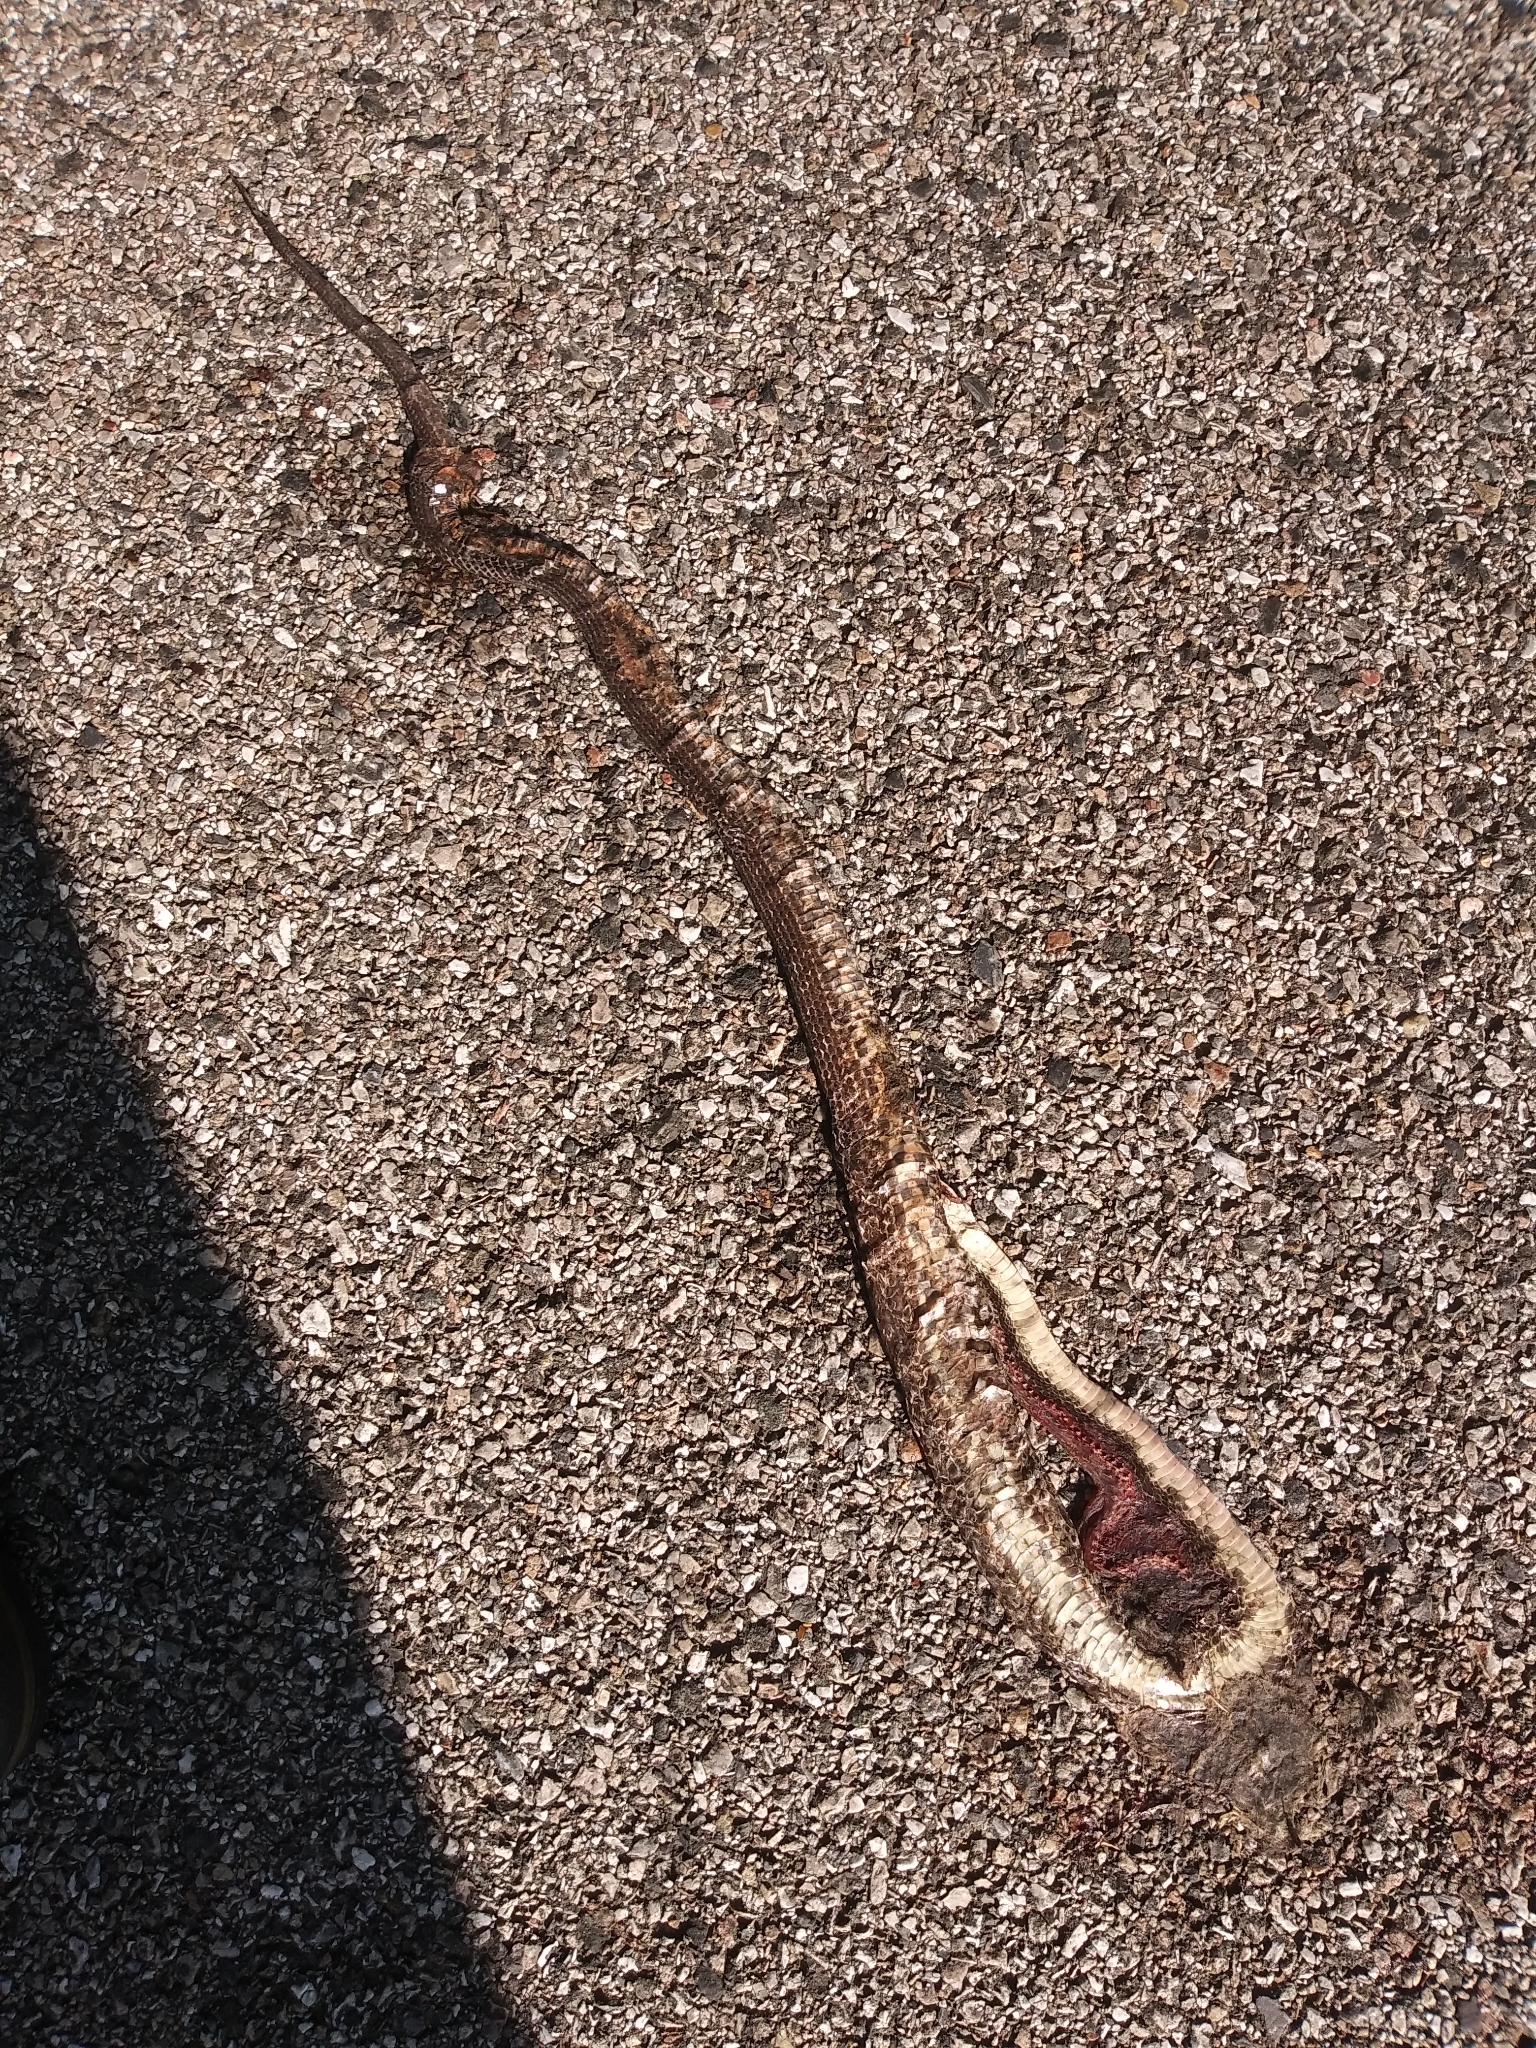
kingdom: Animalia
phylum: Chordata
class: Squamata
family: Colubridae
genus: Pantherophis
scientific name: Pantherophis
